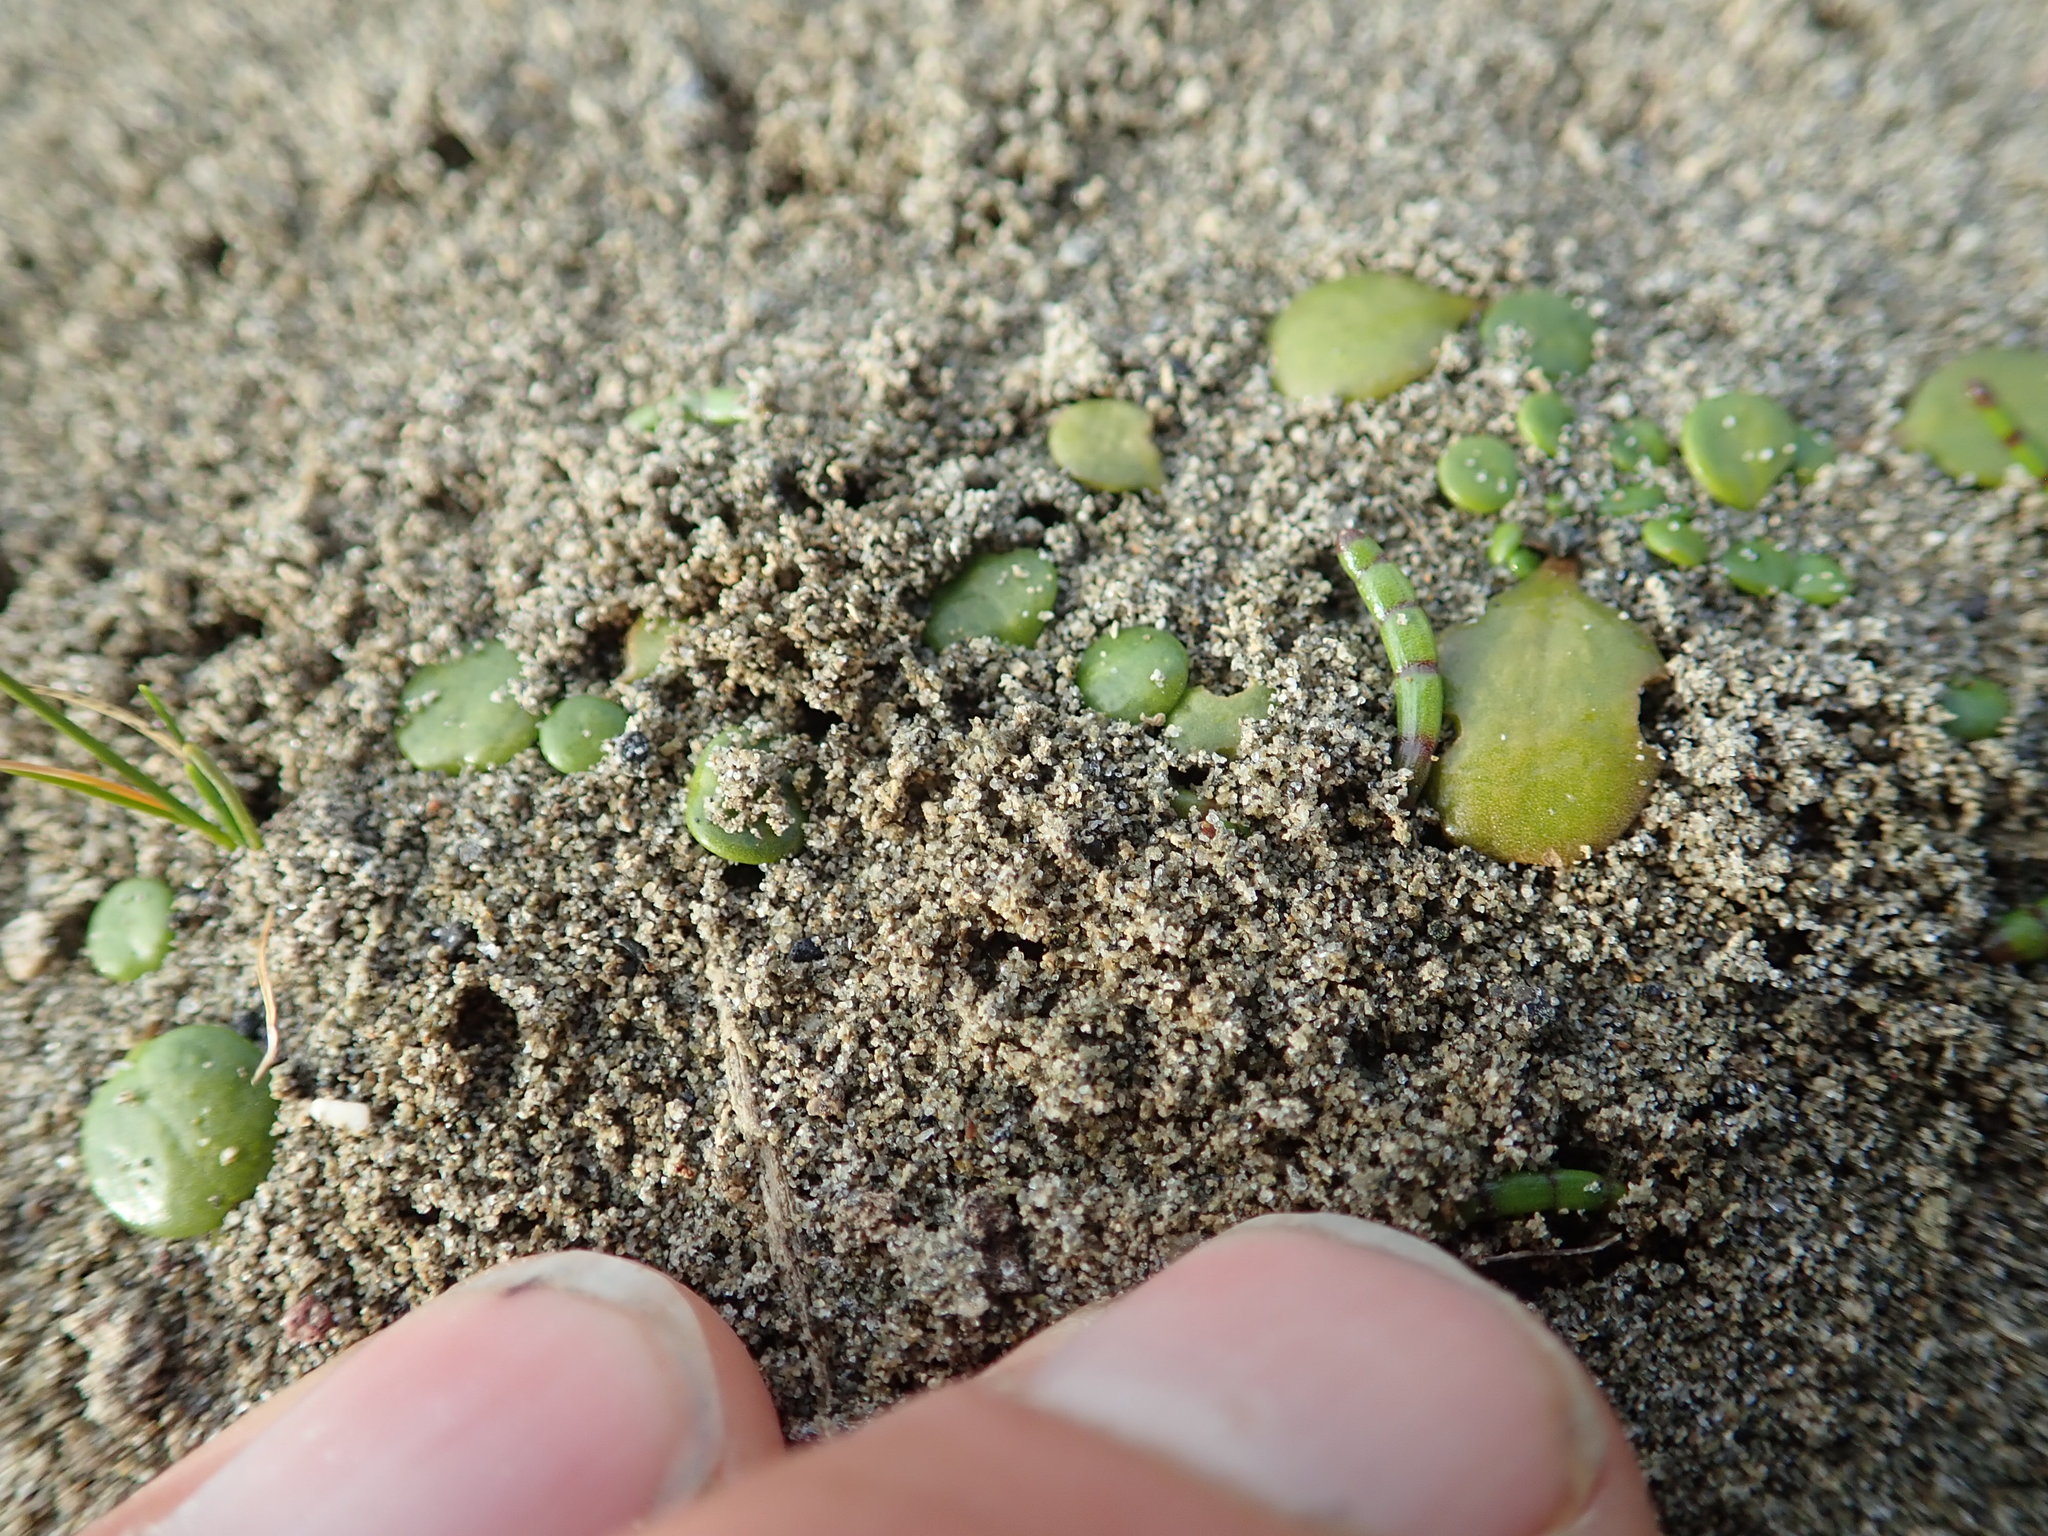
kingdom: Plantae
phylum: Tracheophyta
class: Magnoliopsida
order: Asterales
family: Goodeniaceae
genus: Goodenia
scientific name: Goodenia heenanii
